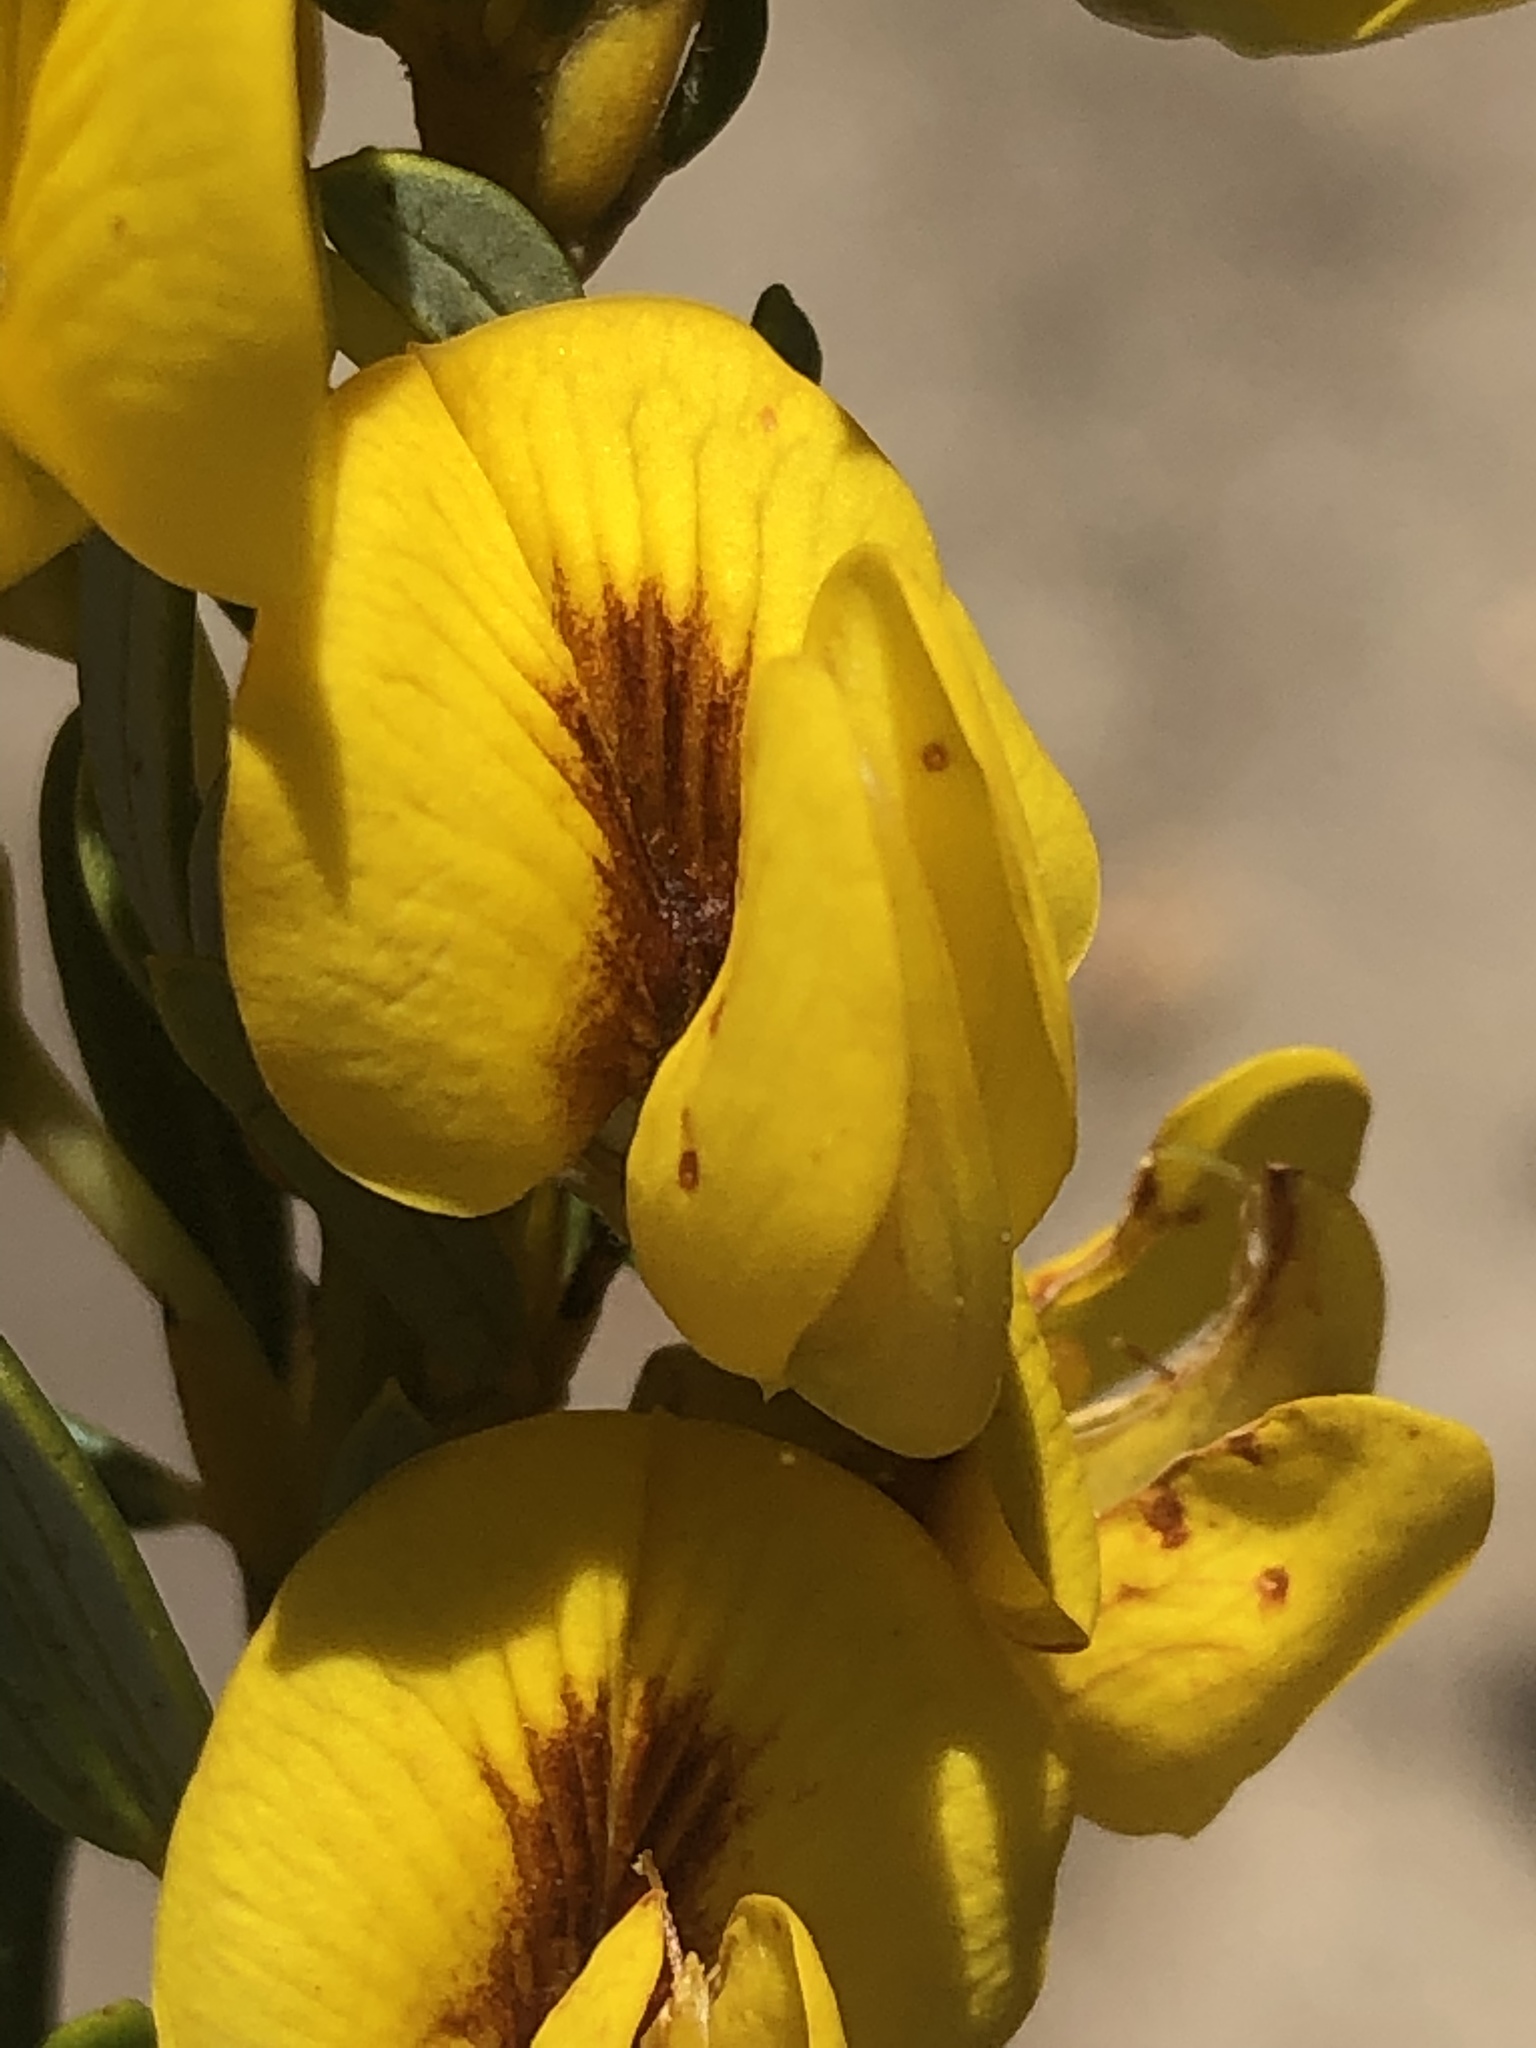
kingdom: Plantae
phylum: Tracheophyta
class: Magnoliopsida
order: Fabales
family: Fabaceae
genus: Cyclopia
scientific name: Cyclopia intermedia
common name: Mountain tea
